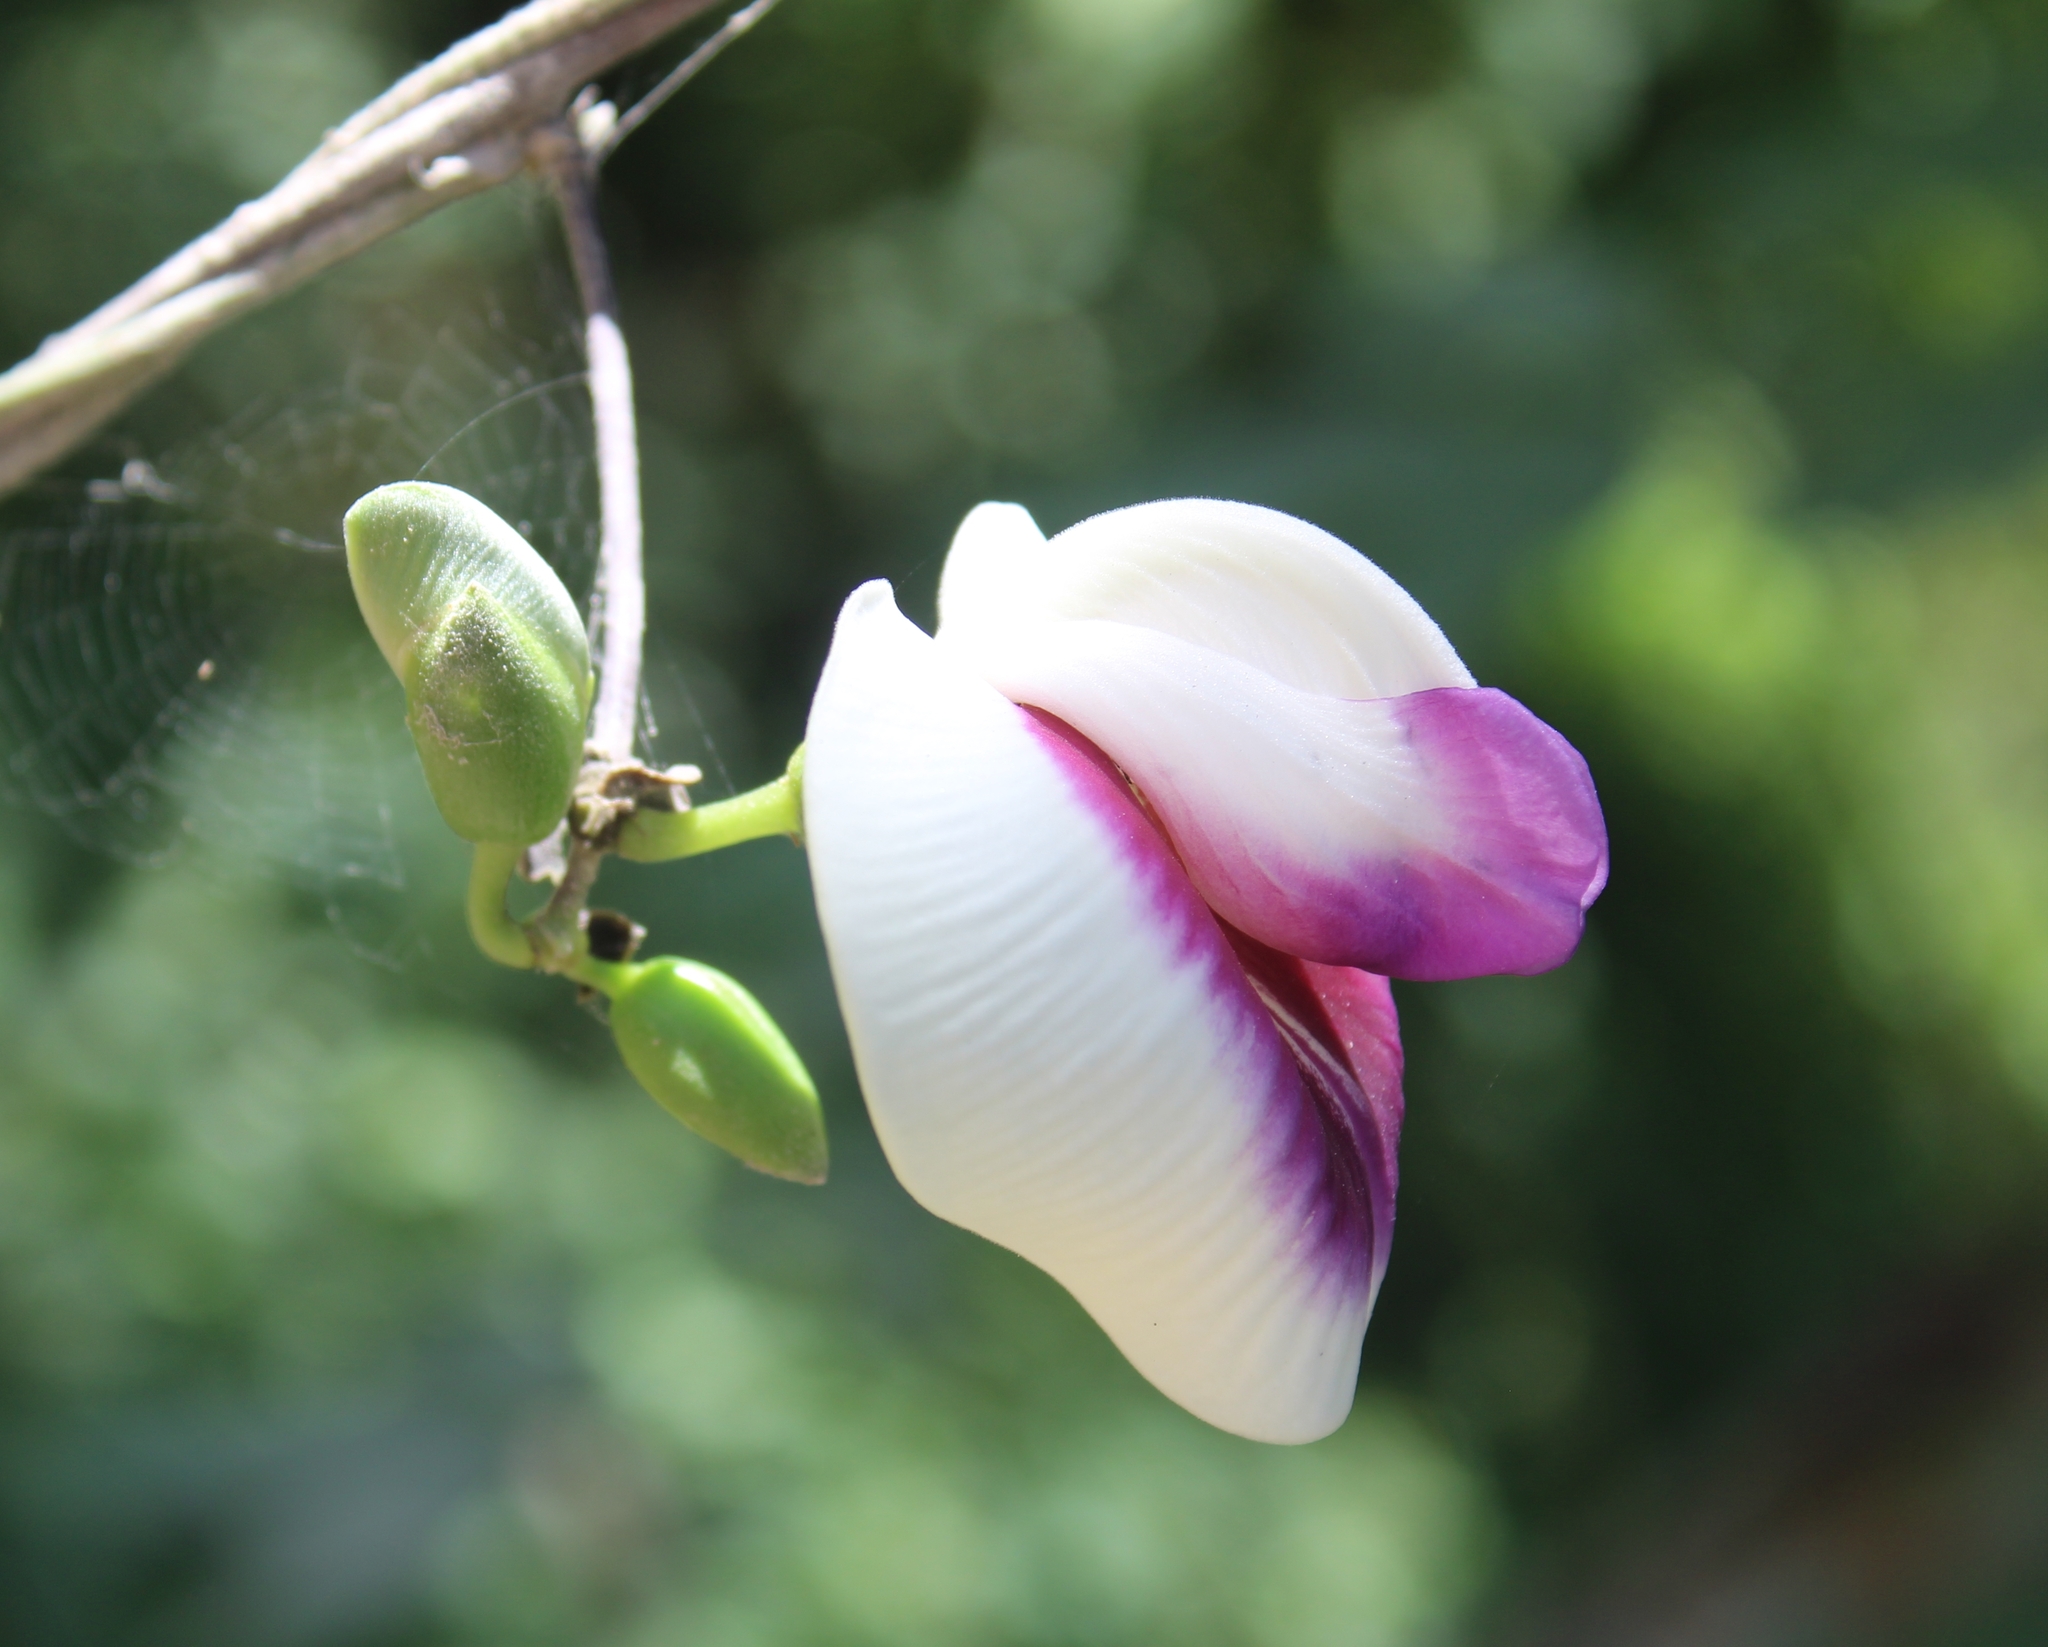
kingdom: Plantae
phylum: Tracheophyta
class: Magnoliopsida
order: Fabales
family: Fabaceae
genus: Centrosema
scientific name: Centrosema plumieri
